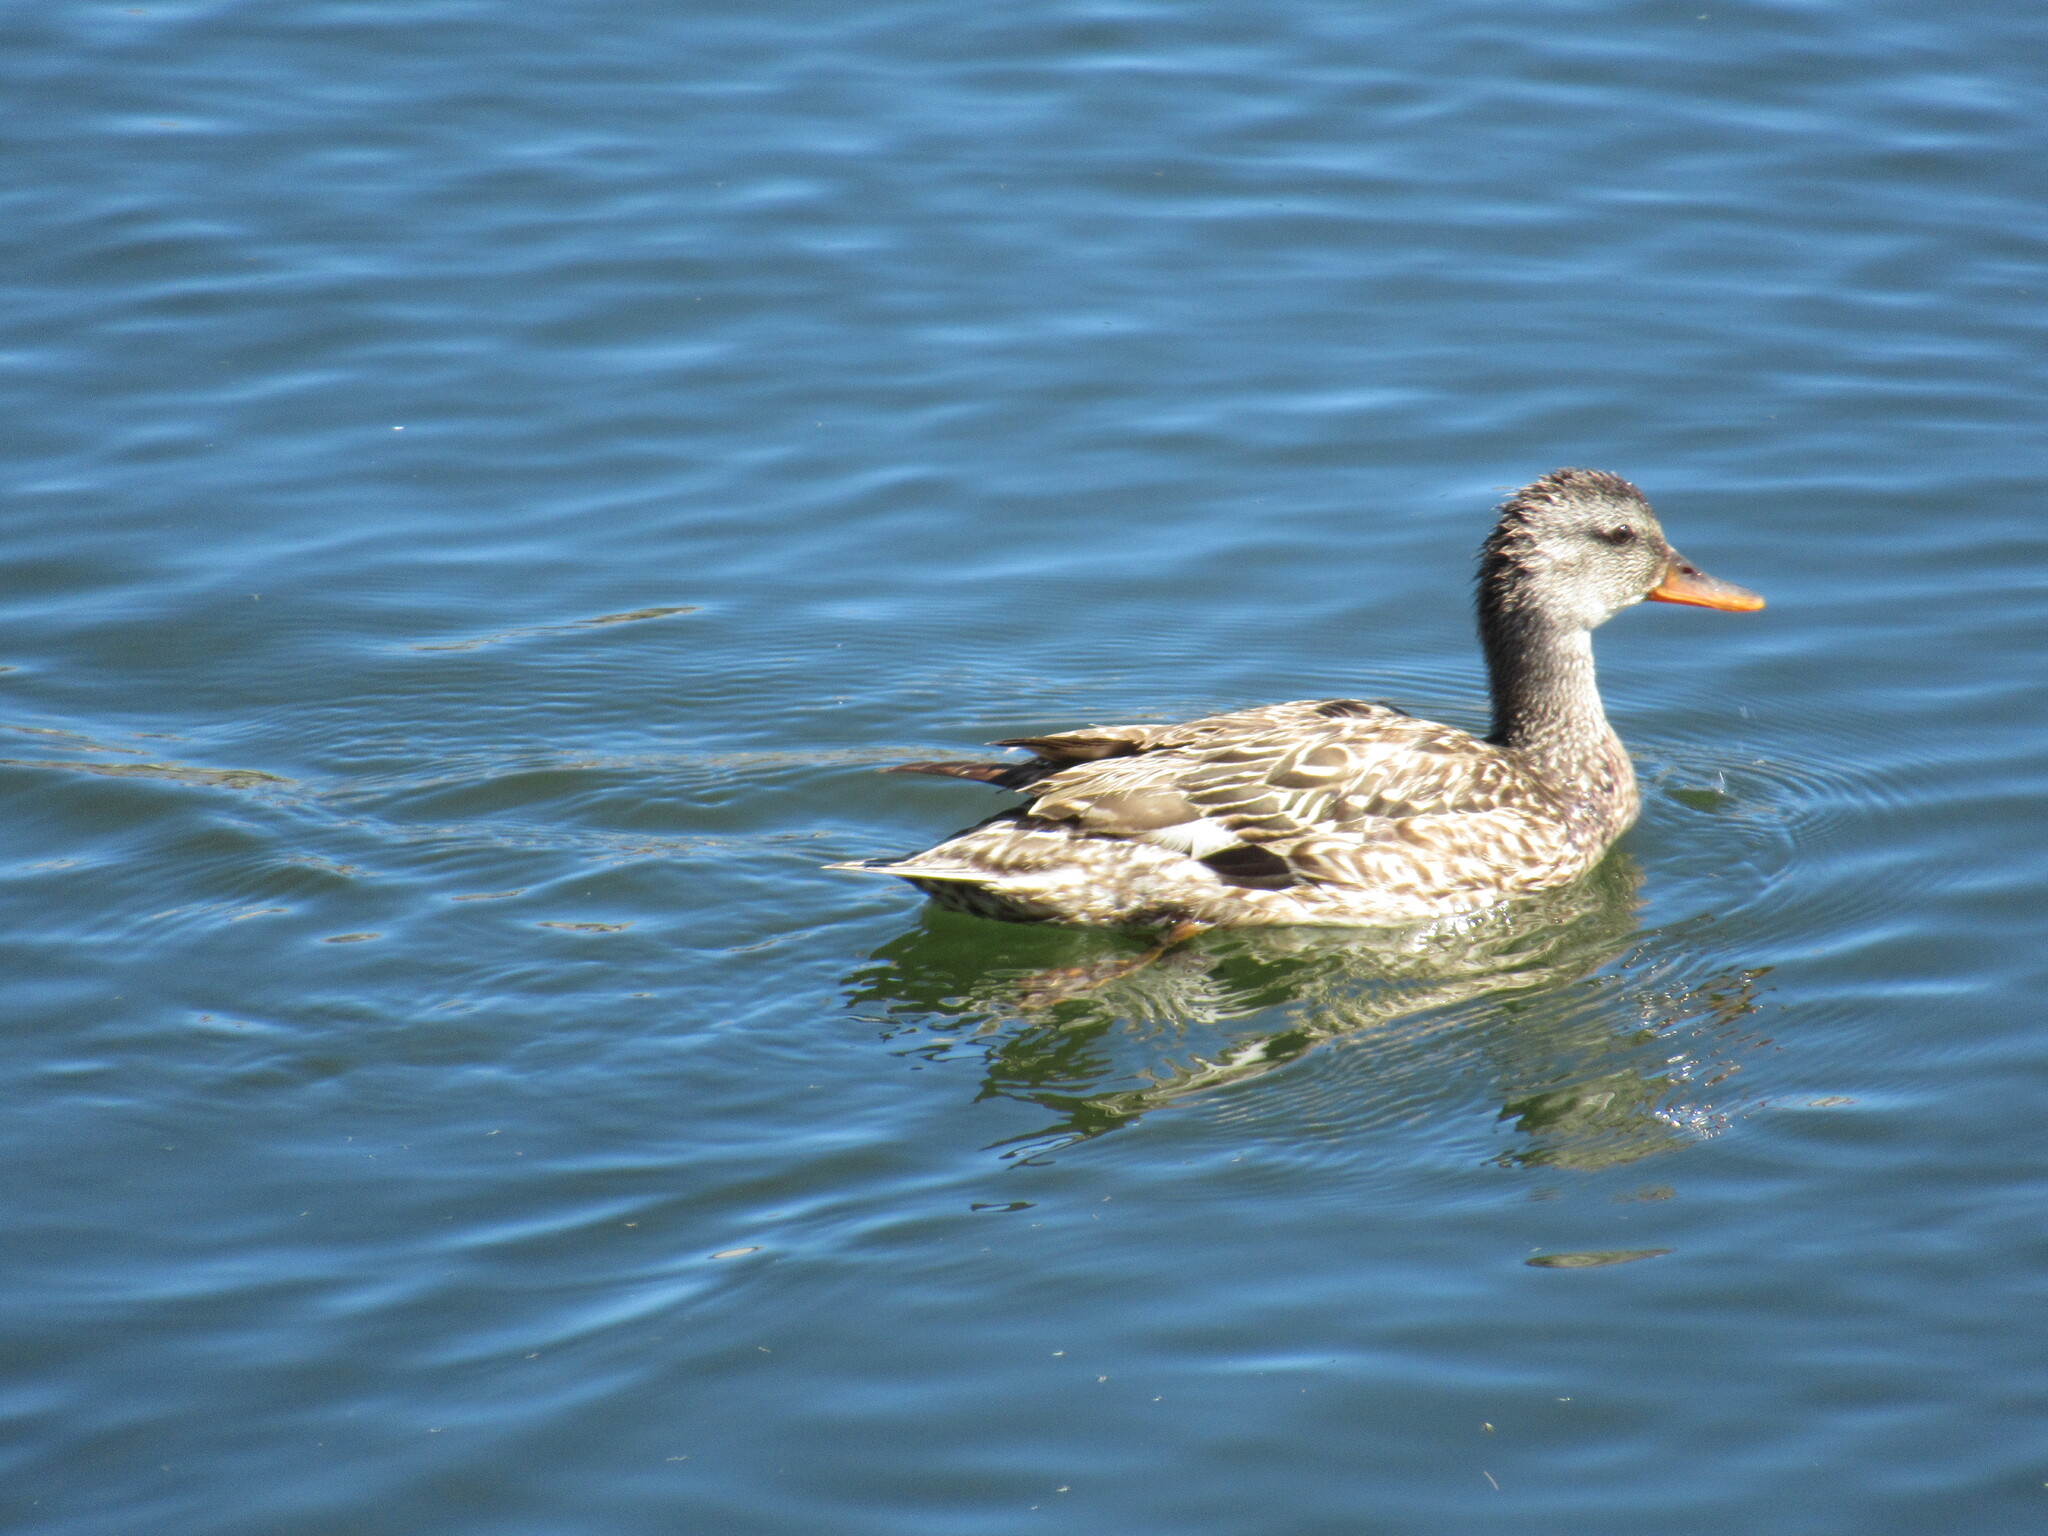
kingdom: Animalia
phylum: Chordata
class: Aves
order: Anseriformes
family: Anatidae
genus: Mareca
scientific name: Mareca strepera
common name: Gadwall
